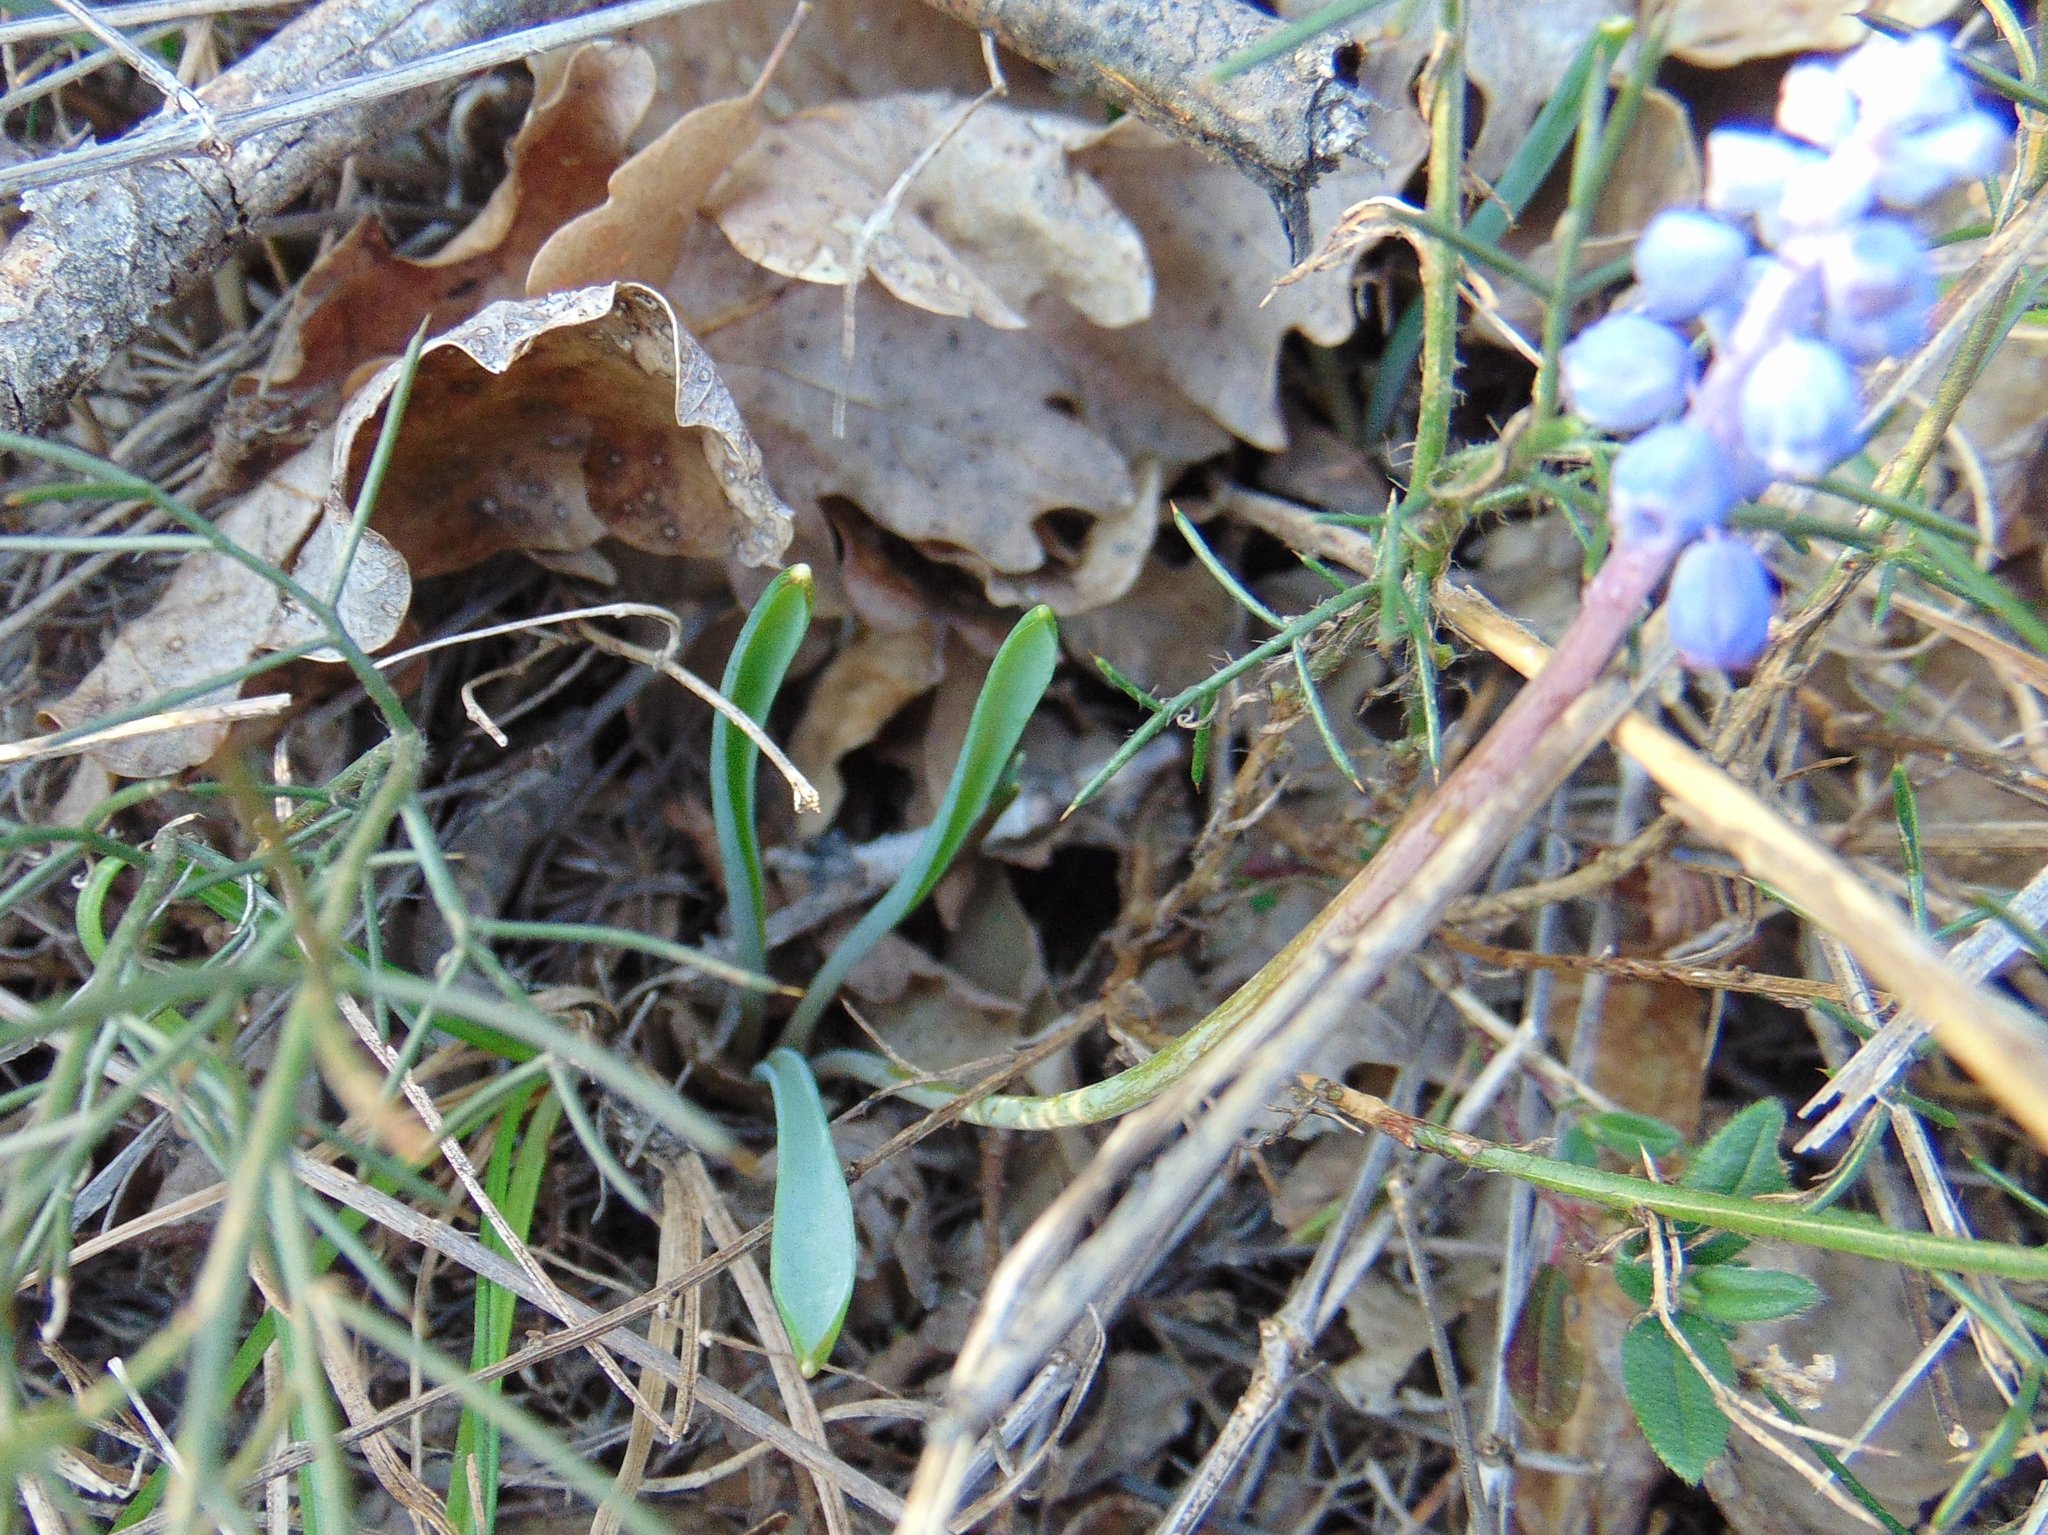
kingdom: Plantae
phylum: Tracheophyta
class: Liliopsida
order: Asparagales
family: Asparagaceae
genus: Muscari
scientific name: Muscari botryoides
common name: Compact grape-hyacinth
